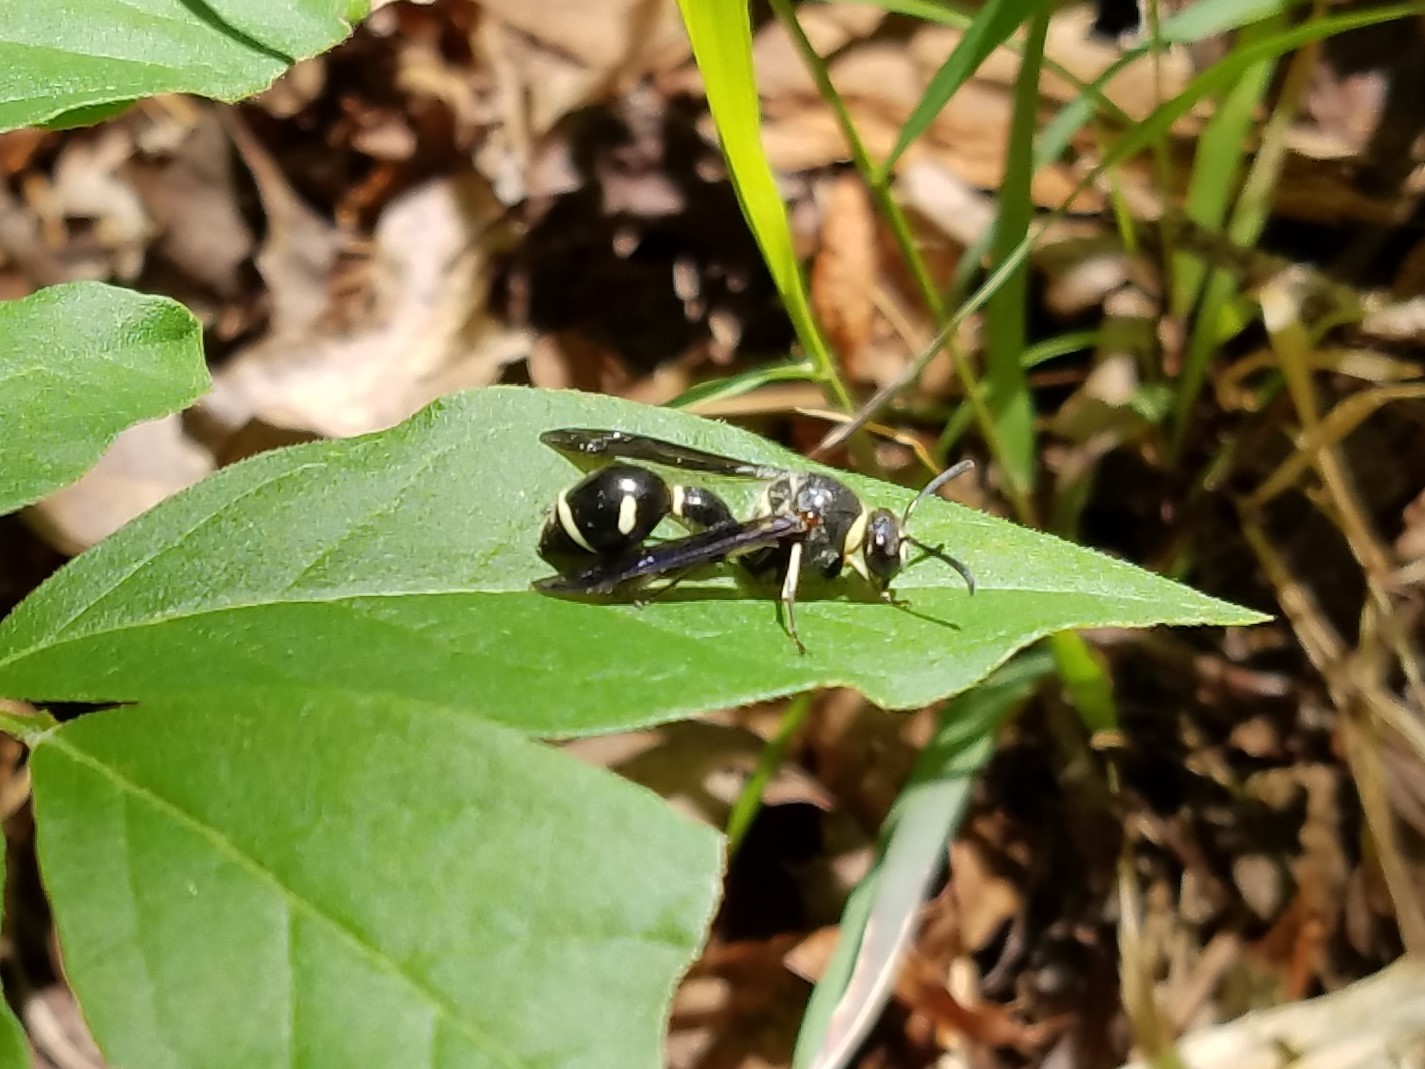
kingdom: Animalia
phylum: Arthropoda
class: Insecta
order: Hymenoptera
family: Vespidae
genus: Eumenes
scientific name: Eumenes fraternus
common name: Fraternal potter wasp
